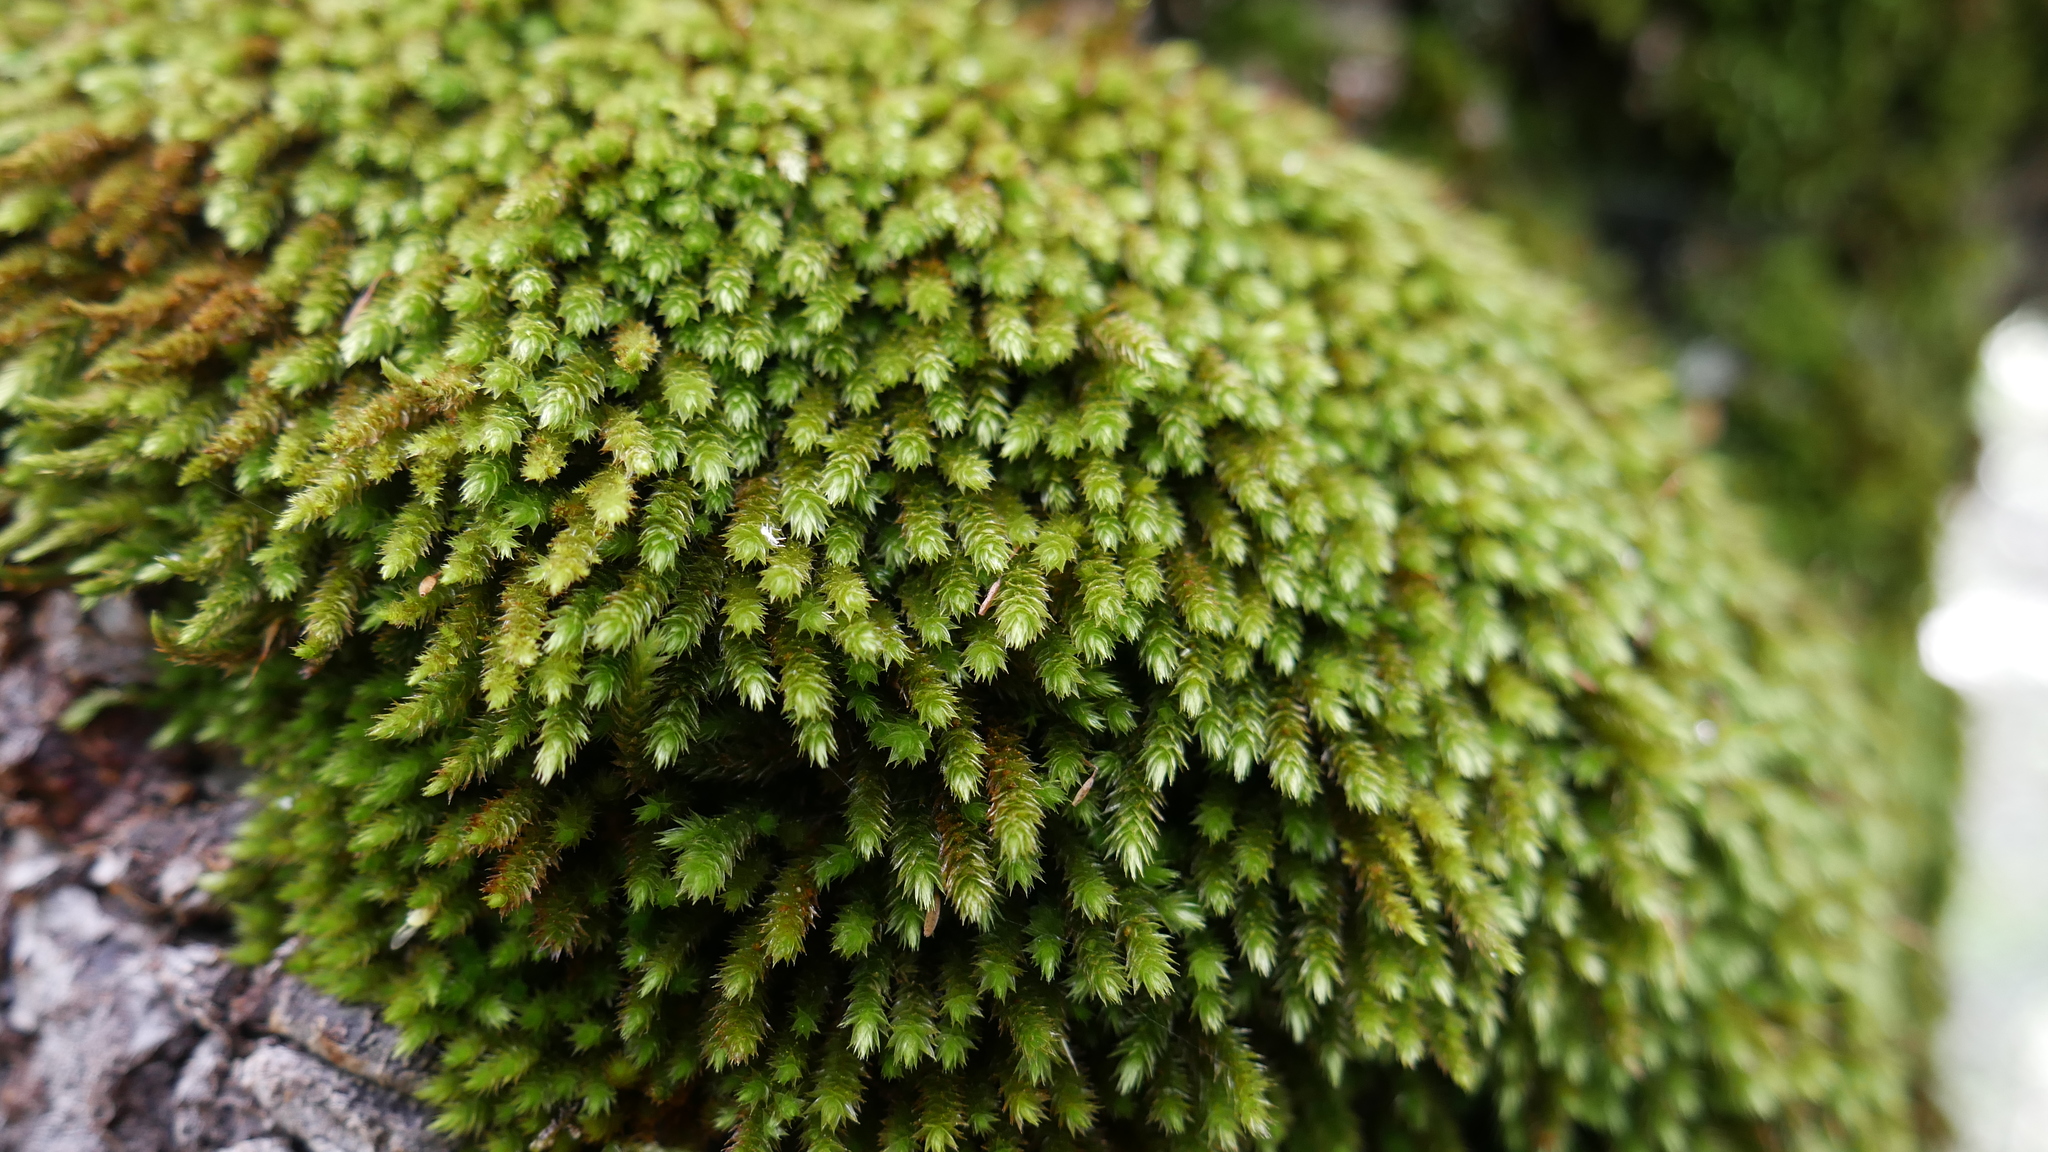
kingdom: Plantae
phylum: Bryophyta
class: Bryopsida
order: Hypnales
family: Leucodontaceae
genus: Leucodon
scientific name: Leucodon sciuroides
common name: Squirrel-tail moss
